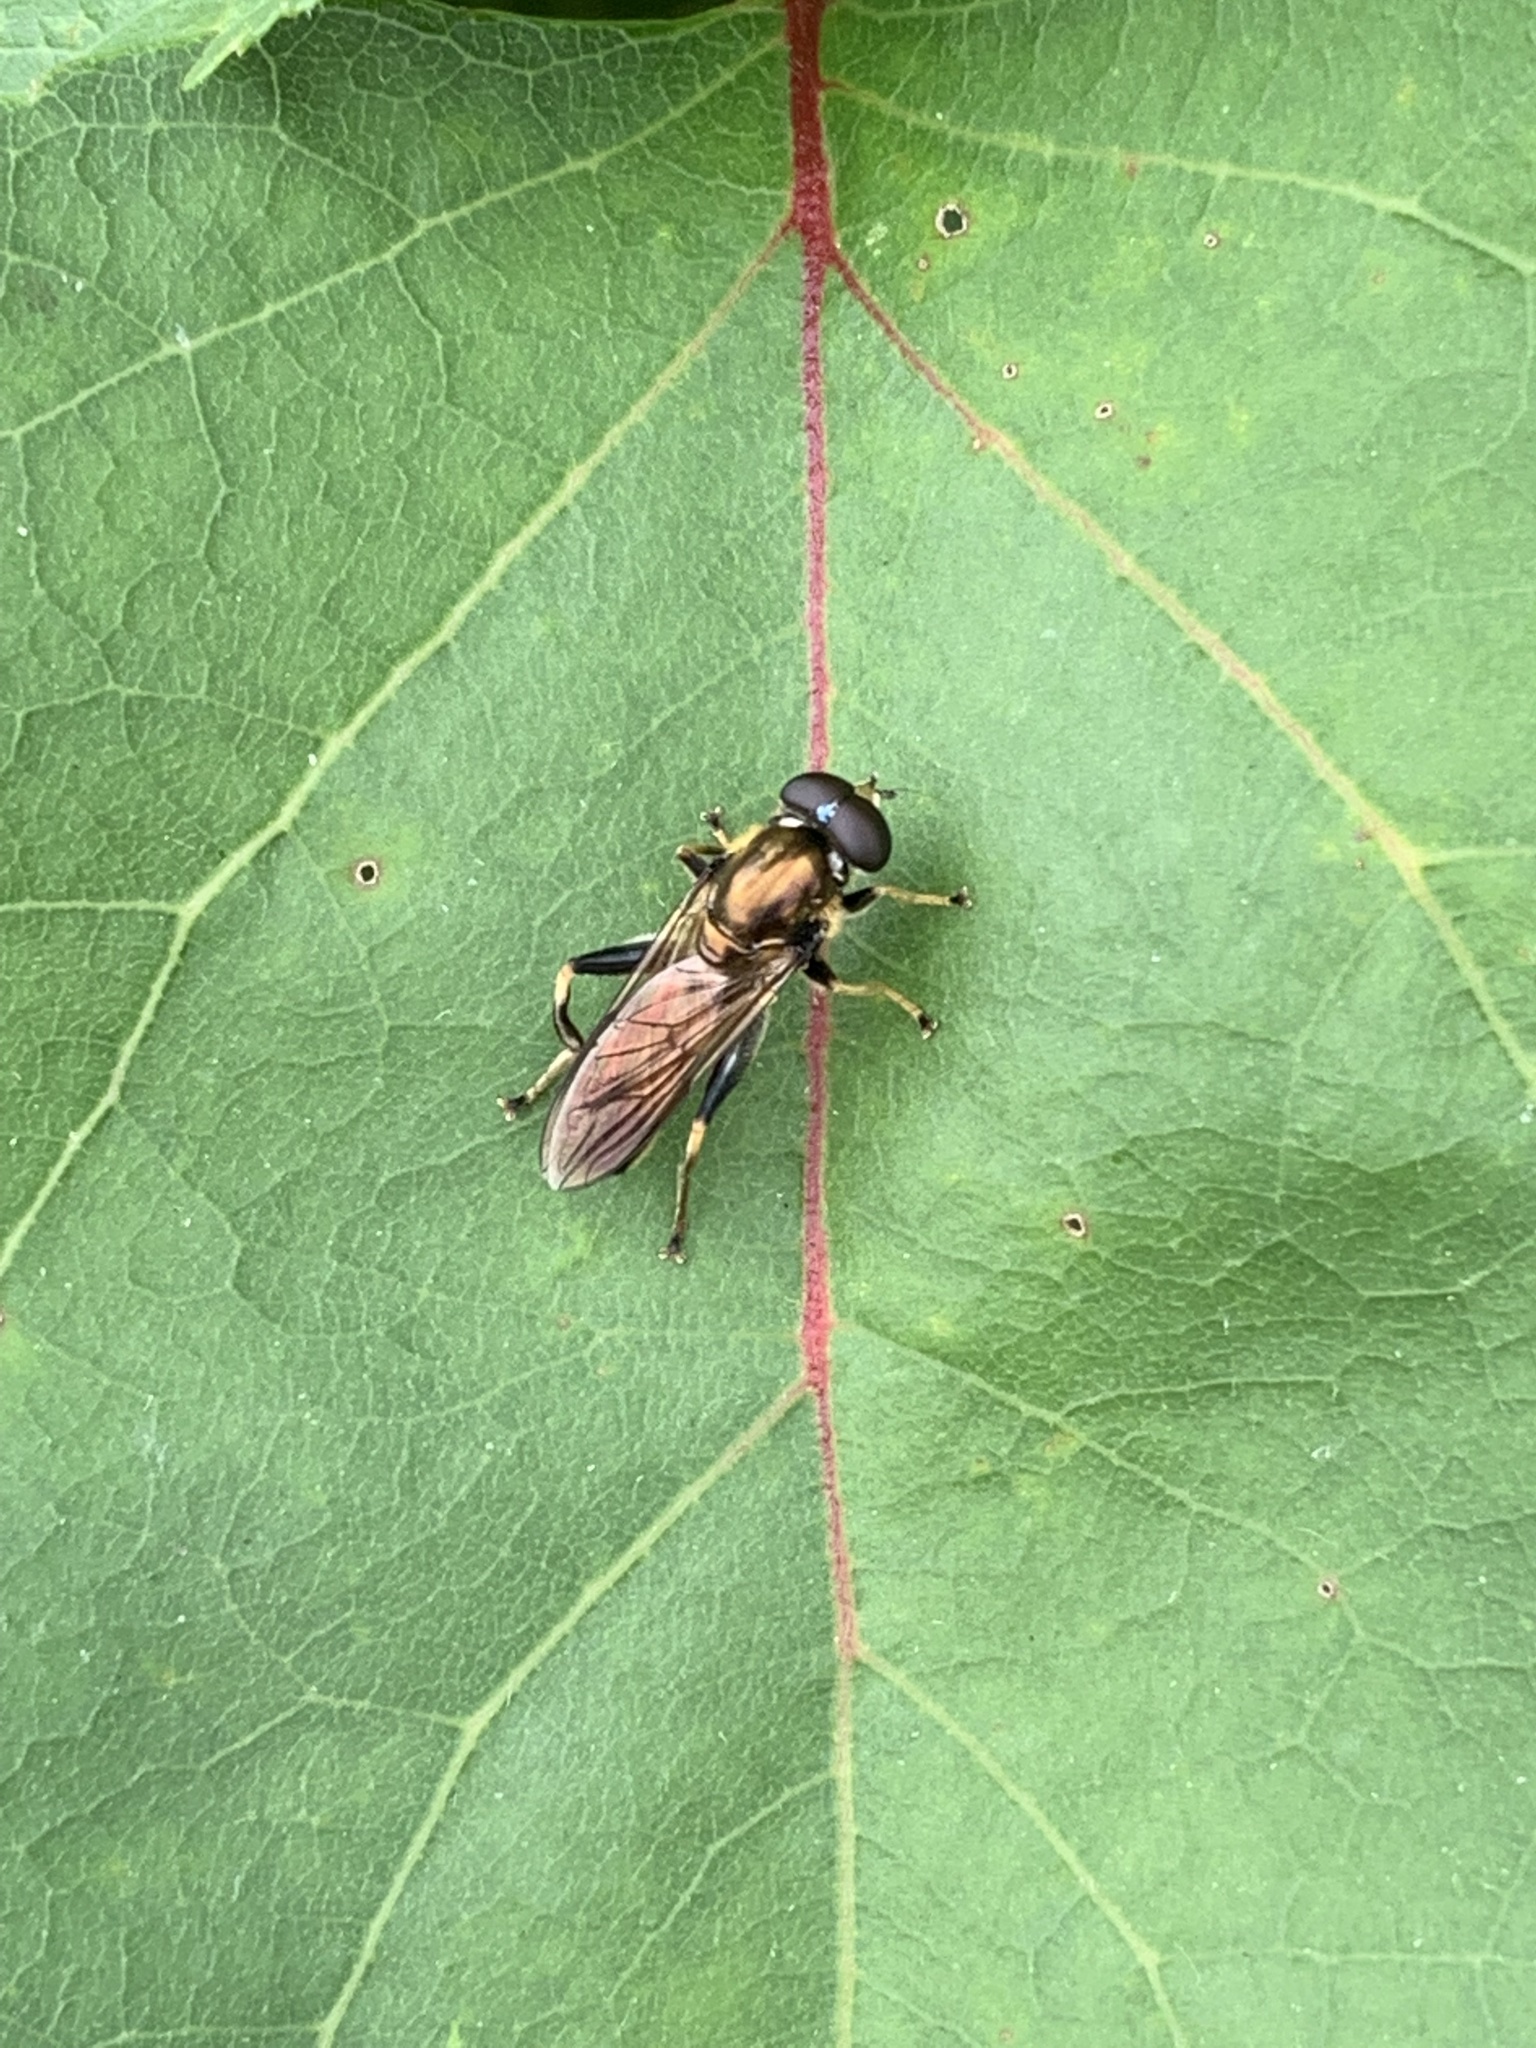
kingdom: Animalia
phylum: Arthropoda
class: Insecta
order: Diptera
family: Syrphidae
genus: Xylota
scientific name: Xylota segnis
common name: Brown-toed forest fly
